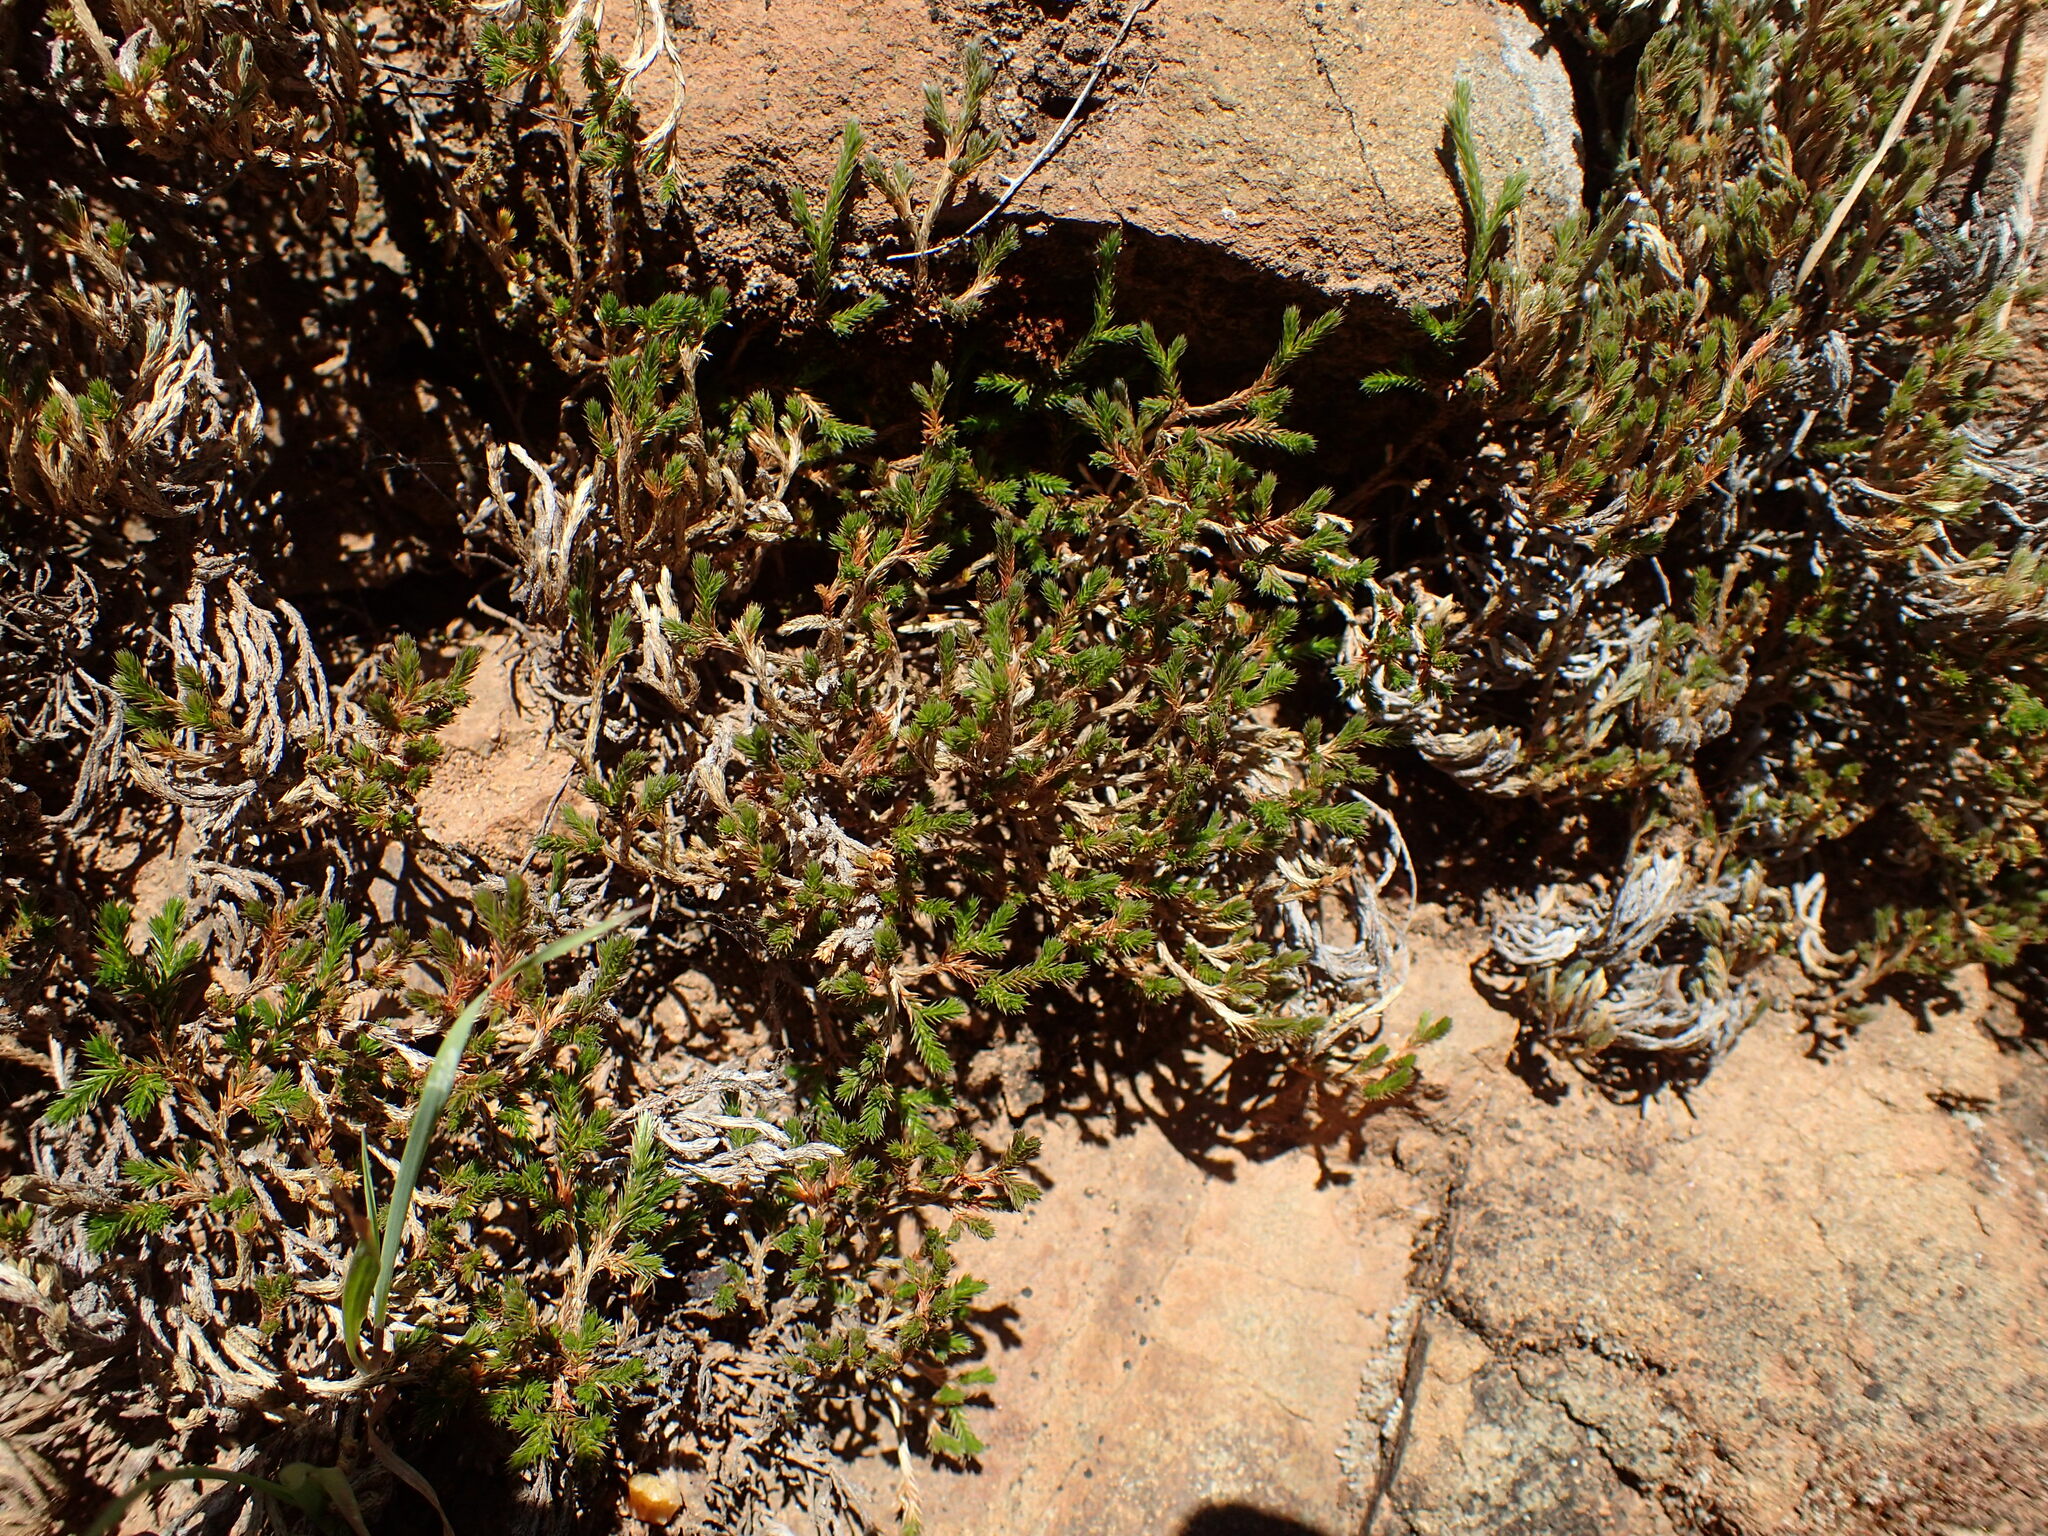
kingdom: Plantae
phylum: Tracheophyta
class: Lycopodiopsida
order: Selaginellales
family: Selaginellaceae
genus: Selaginella
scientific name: Selaginella bigelovii
